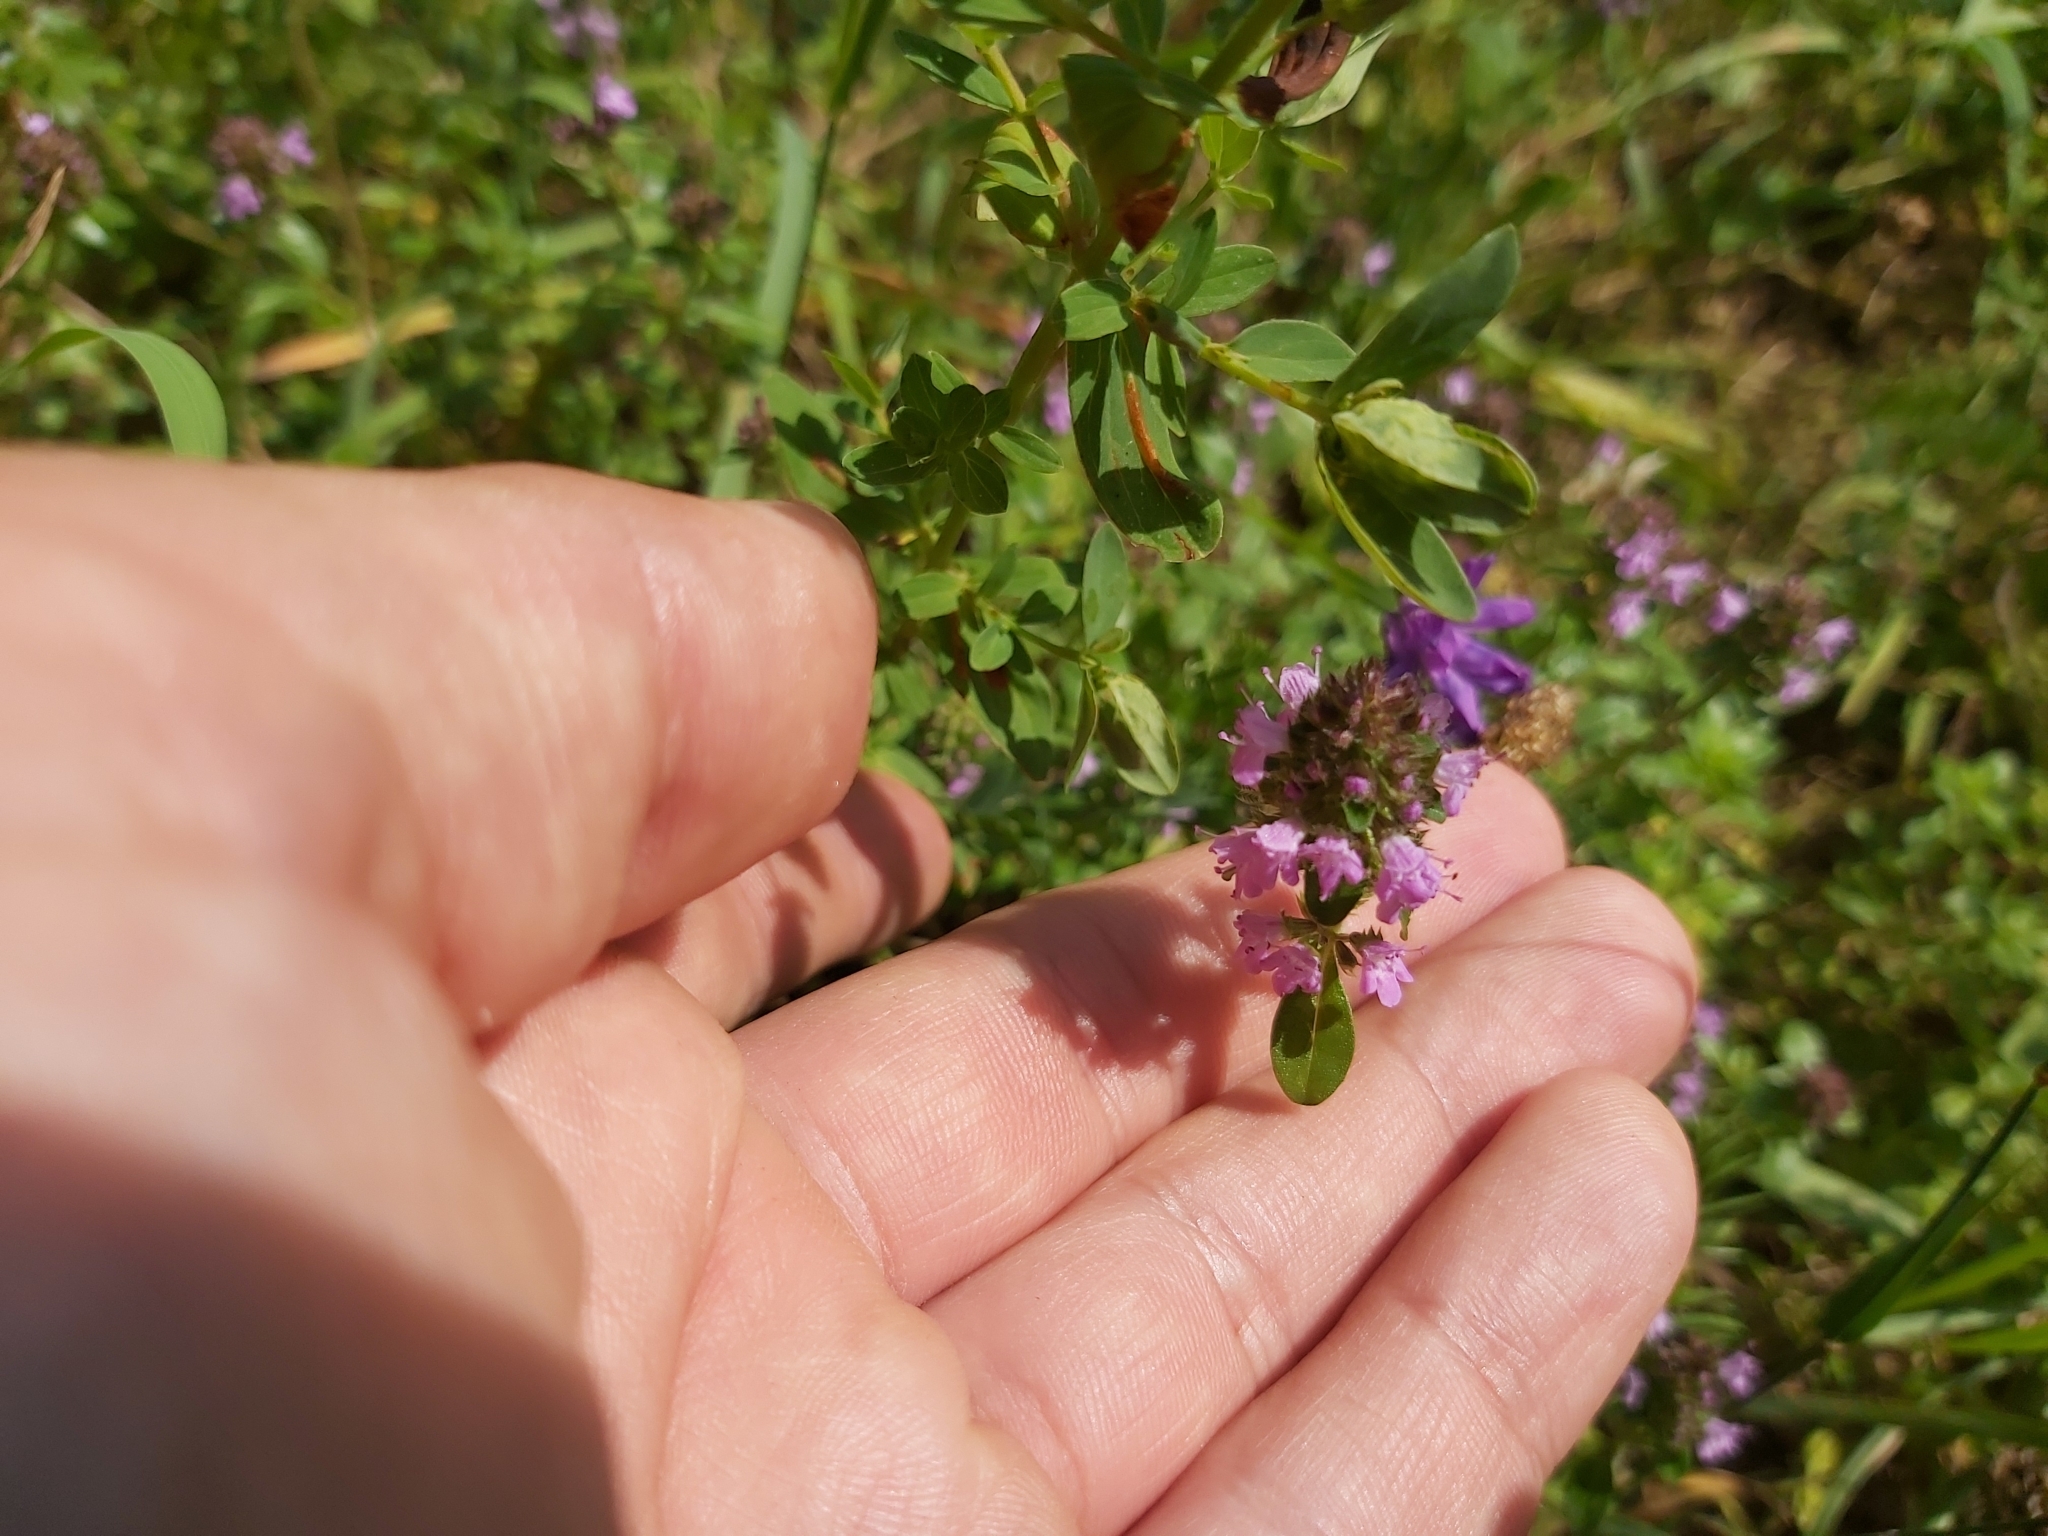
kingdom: Plantae
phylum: Tracheophyta
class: Magnoliopsida
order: Lamiales
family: Lamiaceae
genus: Thymus
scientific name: Thymus pulegioides
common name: Large thyme
